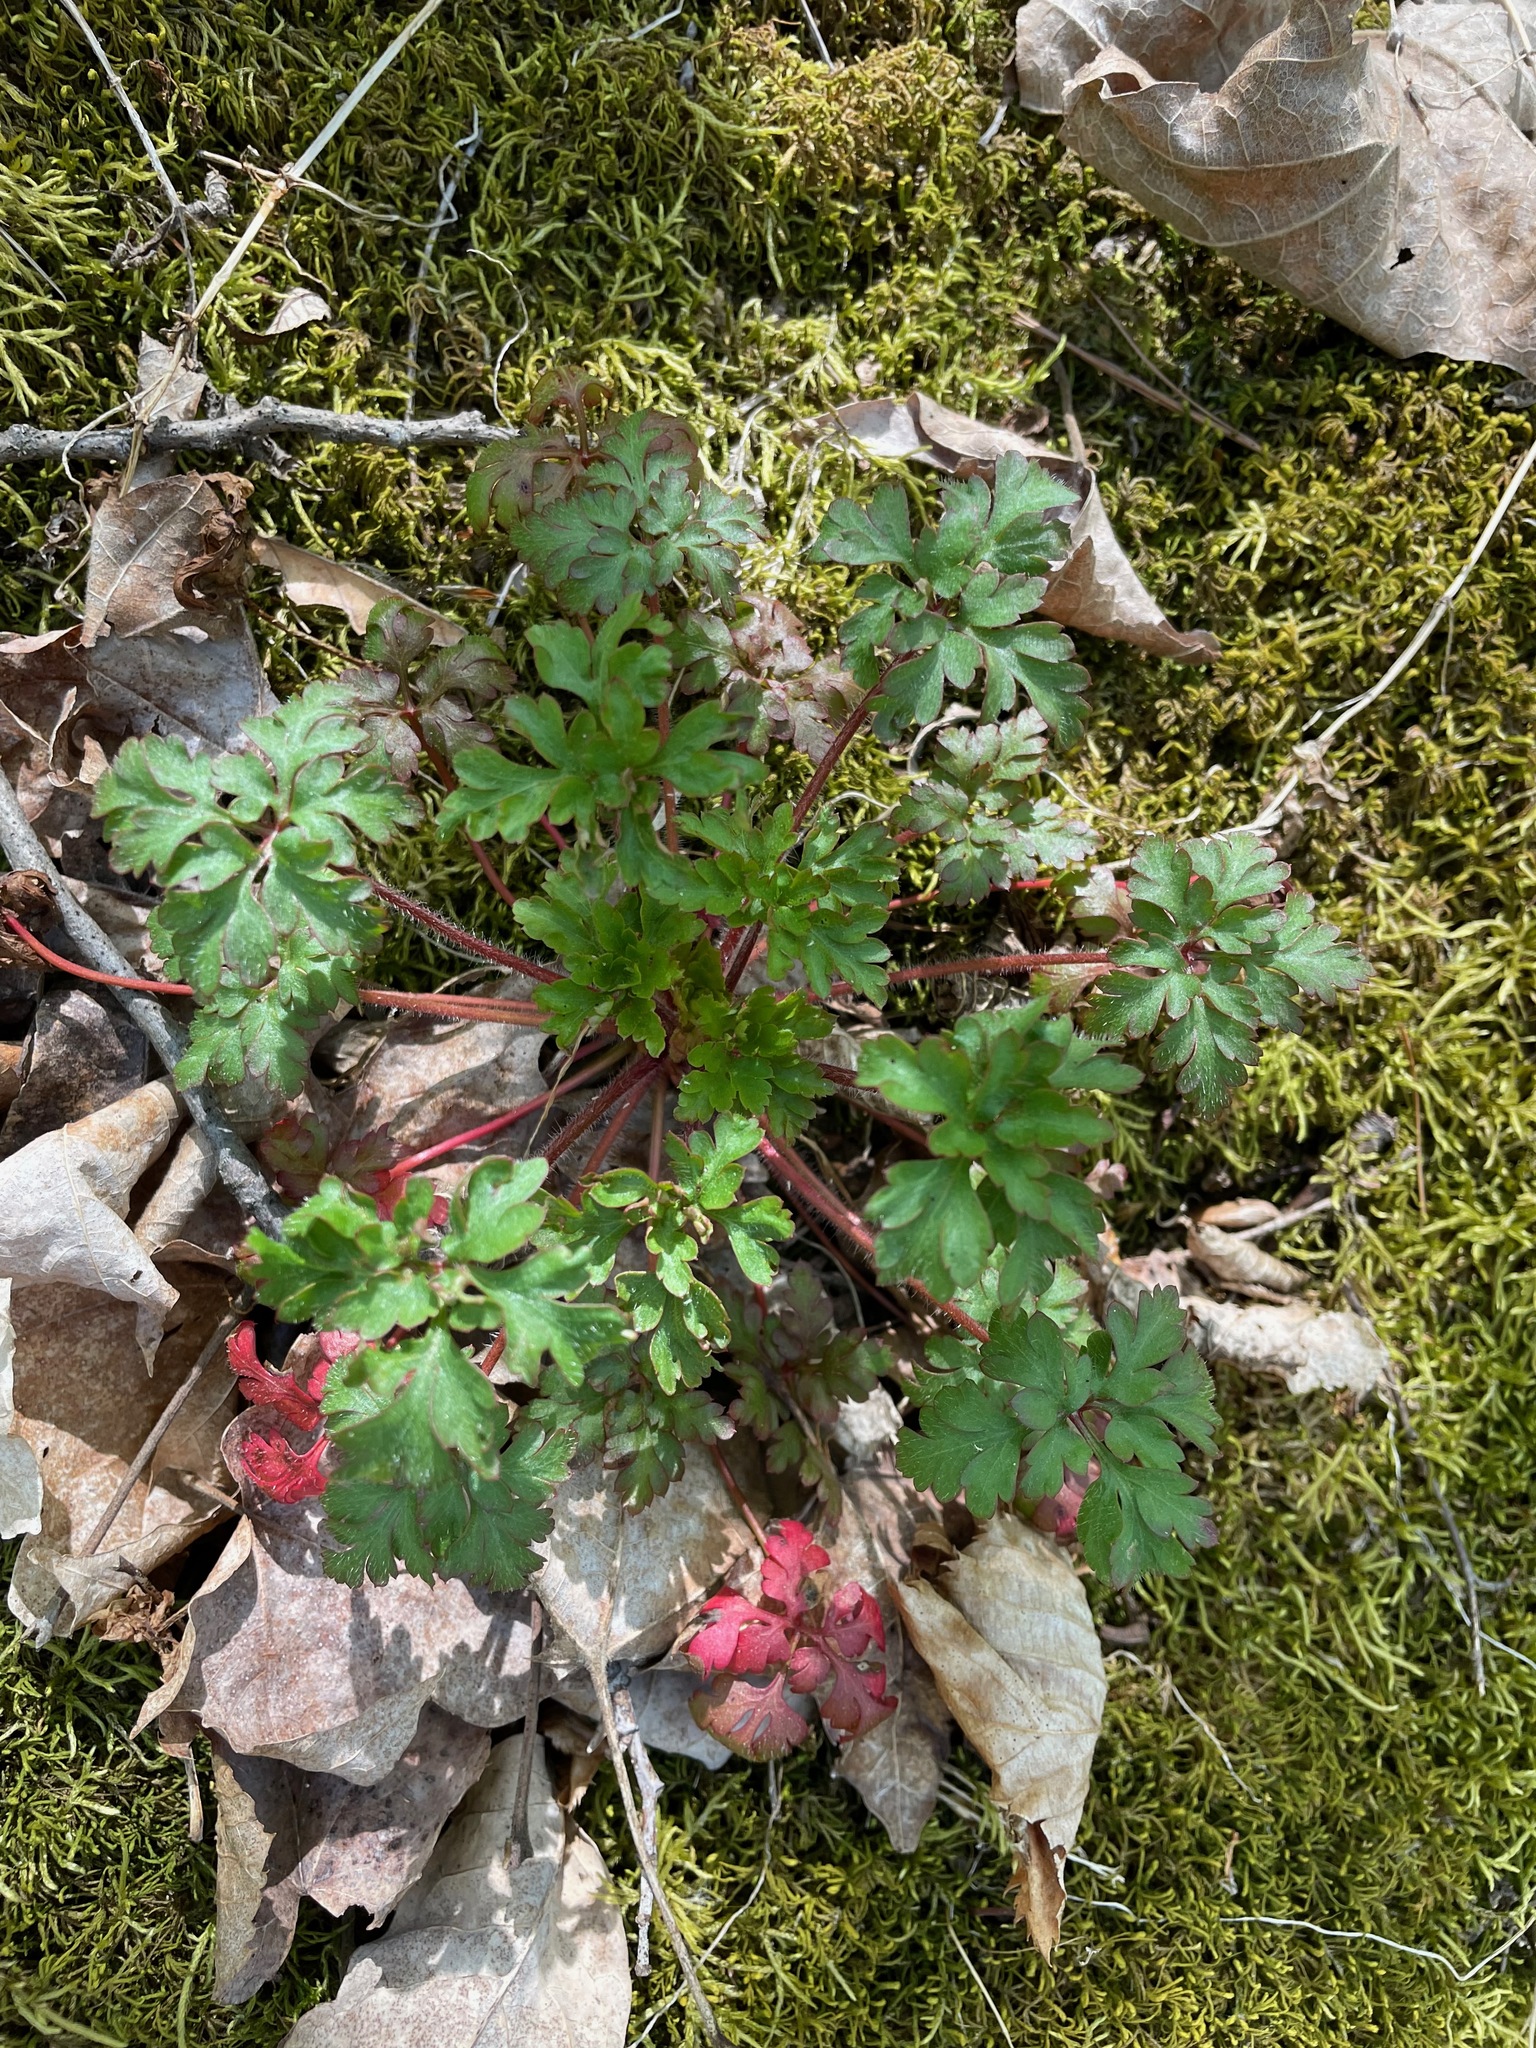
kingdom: Plantae
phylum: Tracheophyta
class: Magnoliopsida
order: Geraniales
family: Geraniaceae
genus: Geranium
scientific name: Geranium robertianum
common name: Herb-robert
